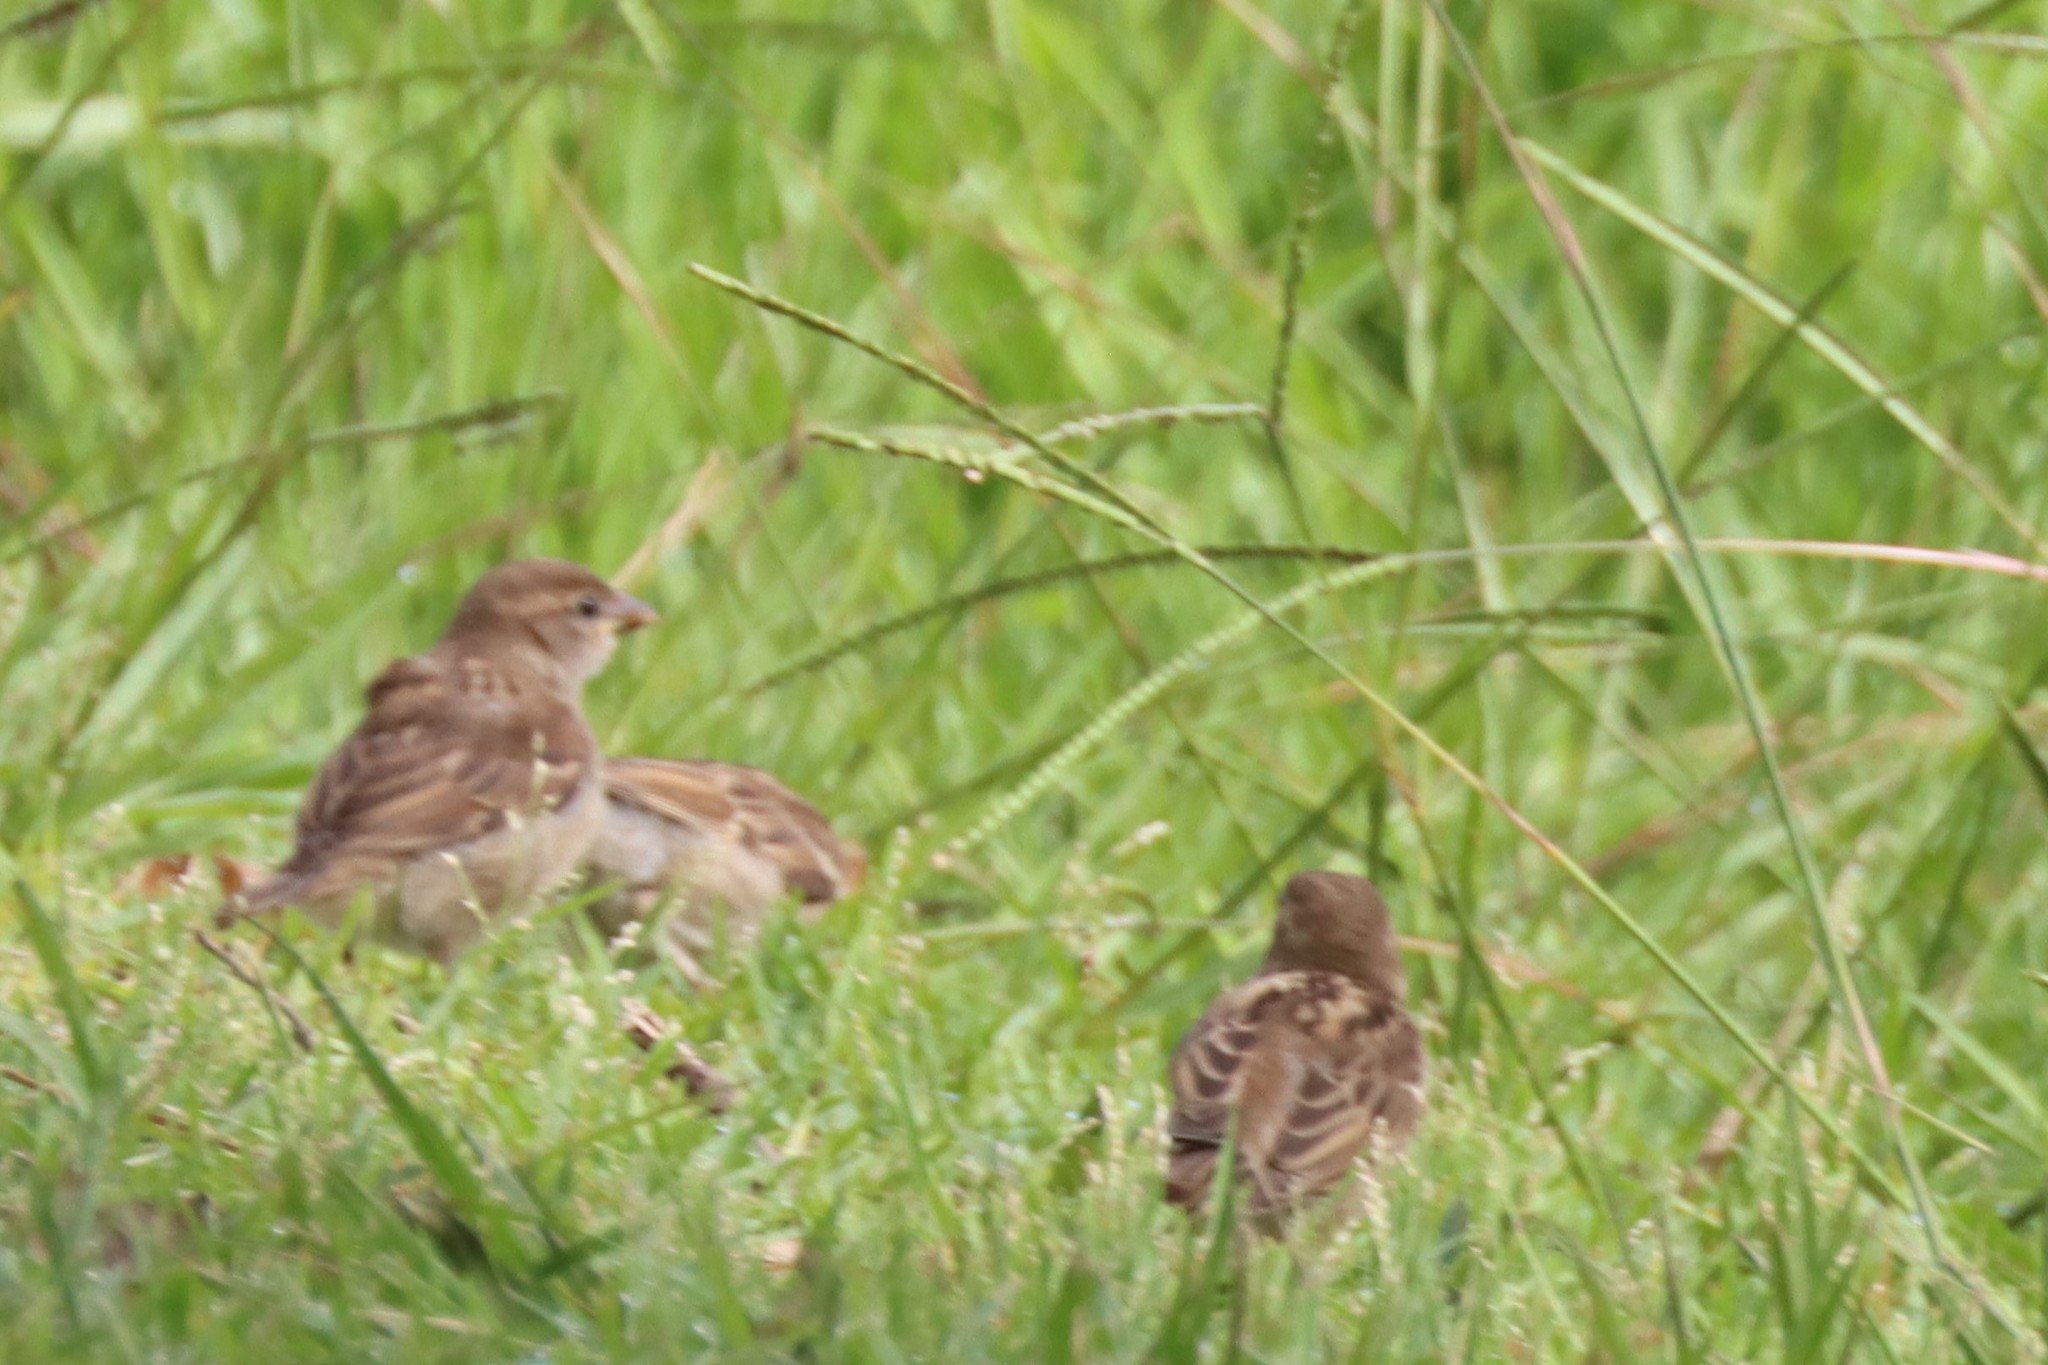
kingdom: Animalia
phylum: Chordata
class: Aves
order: Passeriformes
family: Passeridae
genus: Passer
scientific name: Passer domesticus
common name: House sparrow
